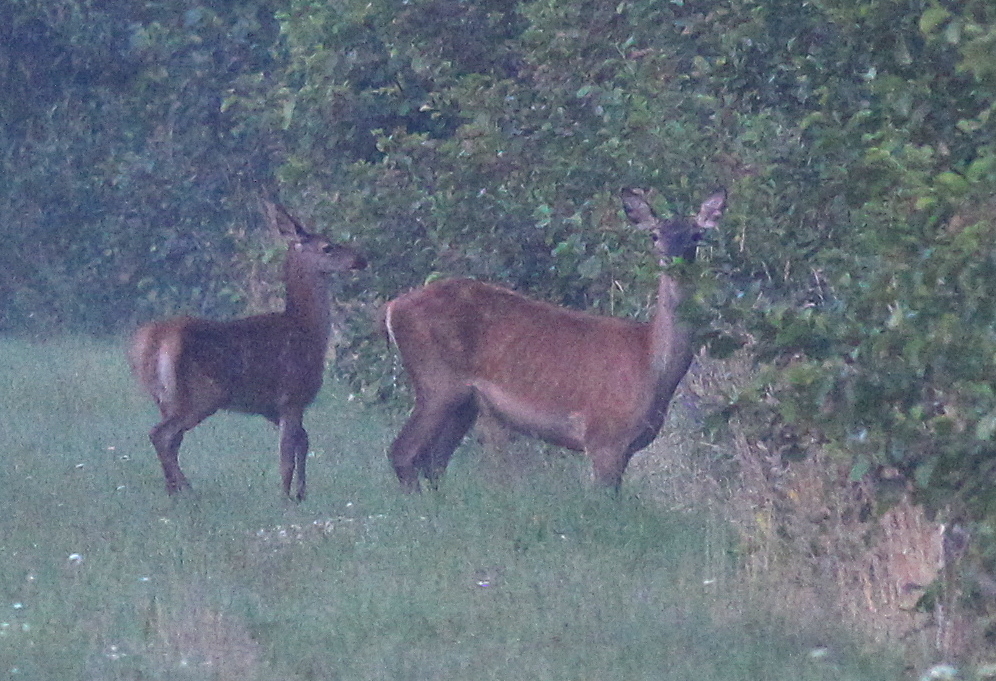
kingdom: Animalia
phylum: Chordata
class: Mammalia
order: Artiodactyla
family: Cervidae
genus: Cervus
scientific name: Cervus elaphus
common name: Red deer
